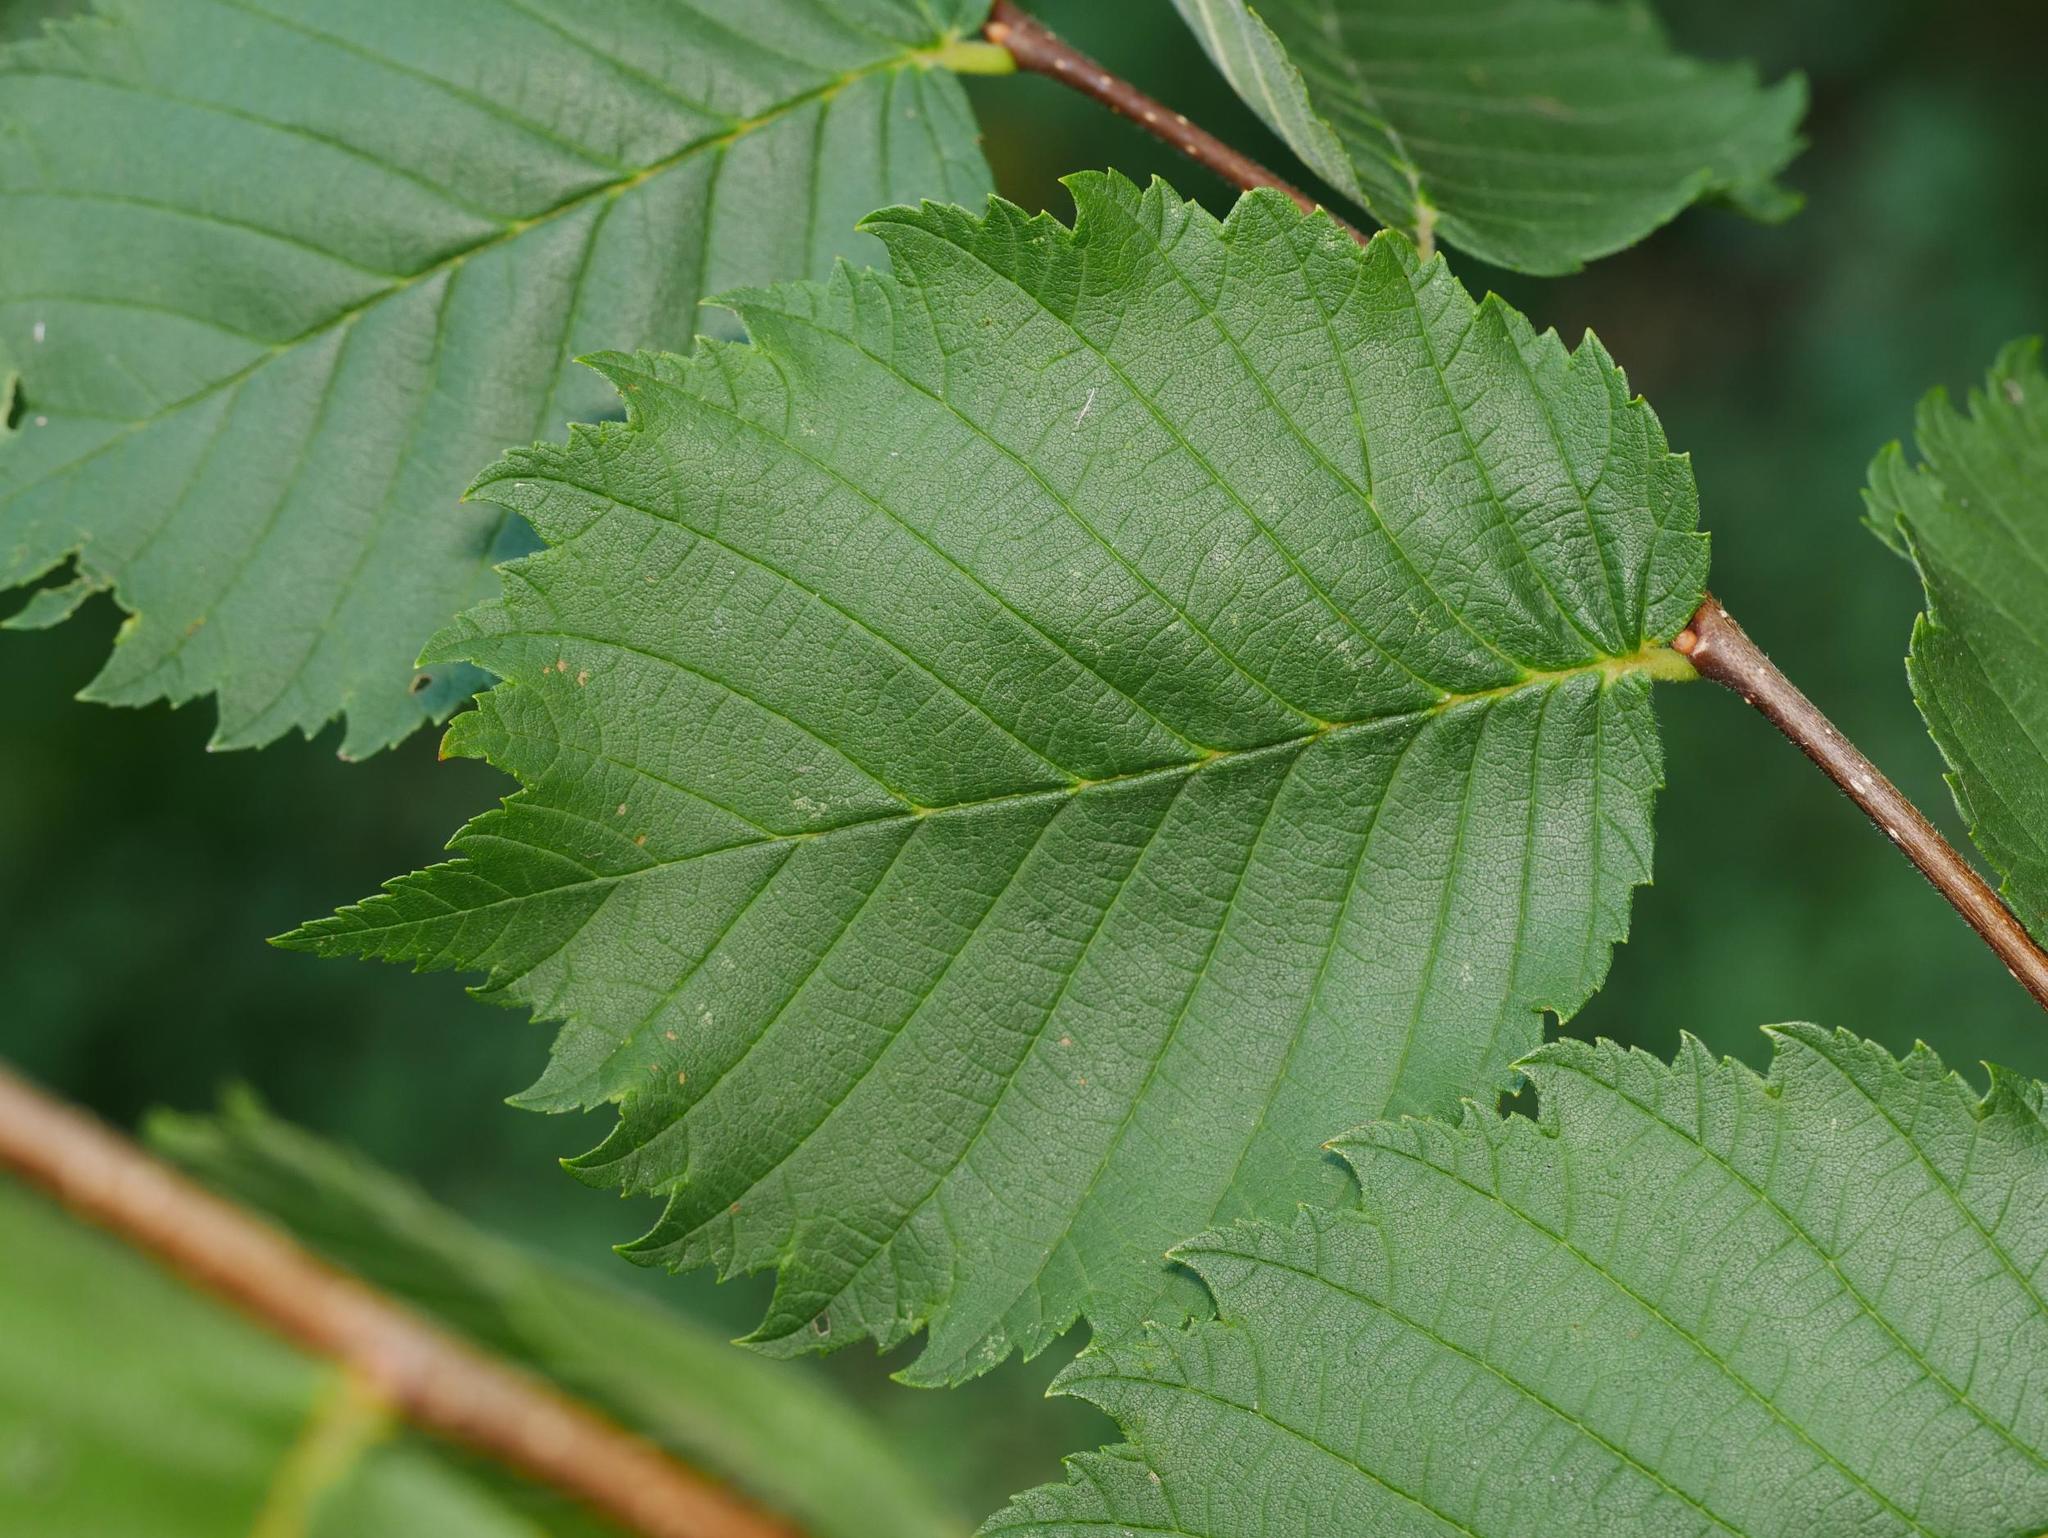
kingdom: Plantae
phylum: Tracheophyta
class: Magnoliopsida
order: Rosales
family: Ulmaceae
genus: Ulmus
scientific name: Ulmus laevis
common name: European white-elm
